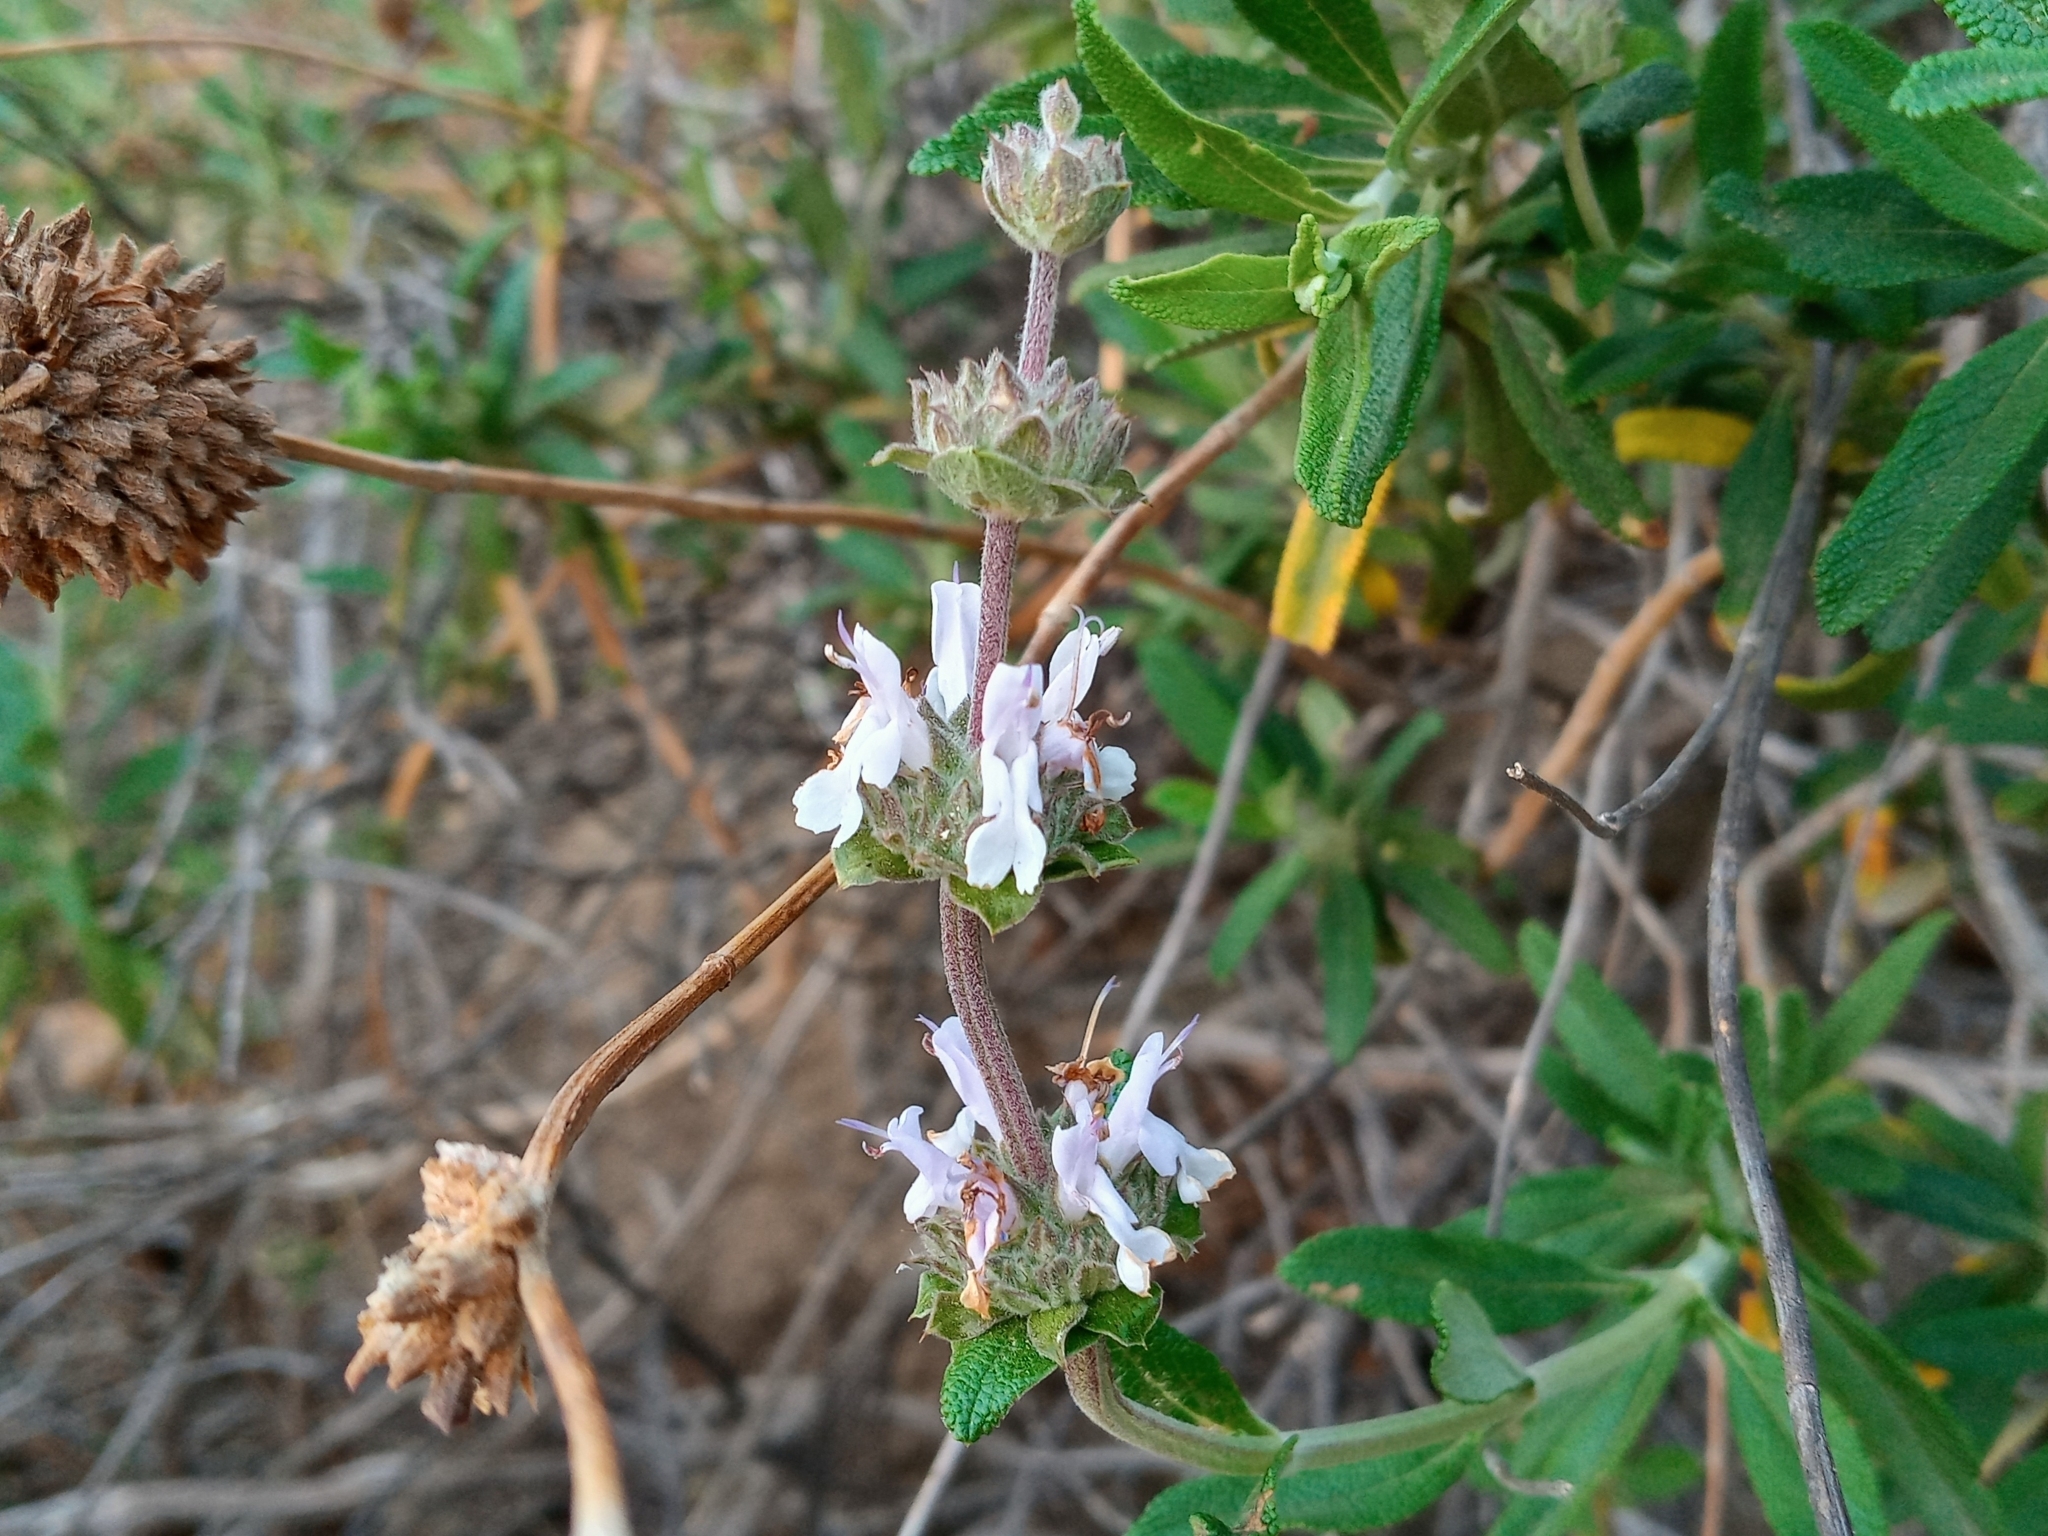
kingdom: Plantae
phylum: Tracheophyta
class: Magnoliopsida
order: Lamiales
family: Lamiaceae
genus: Salvia
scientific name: Salvia mellifera
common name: Black sage
